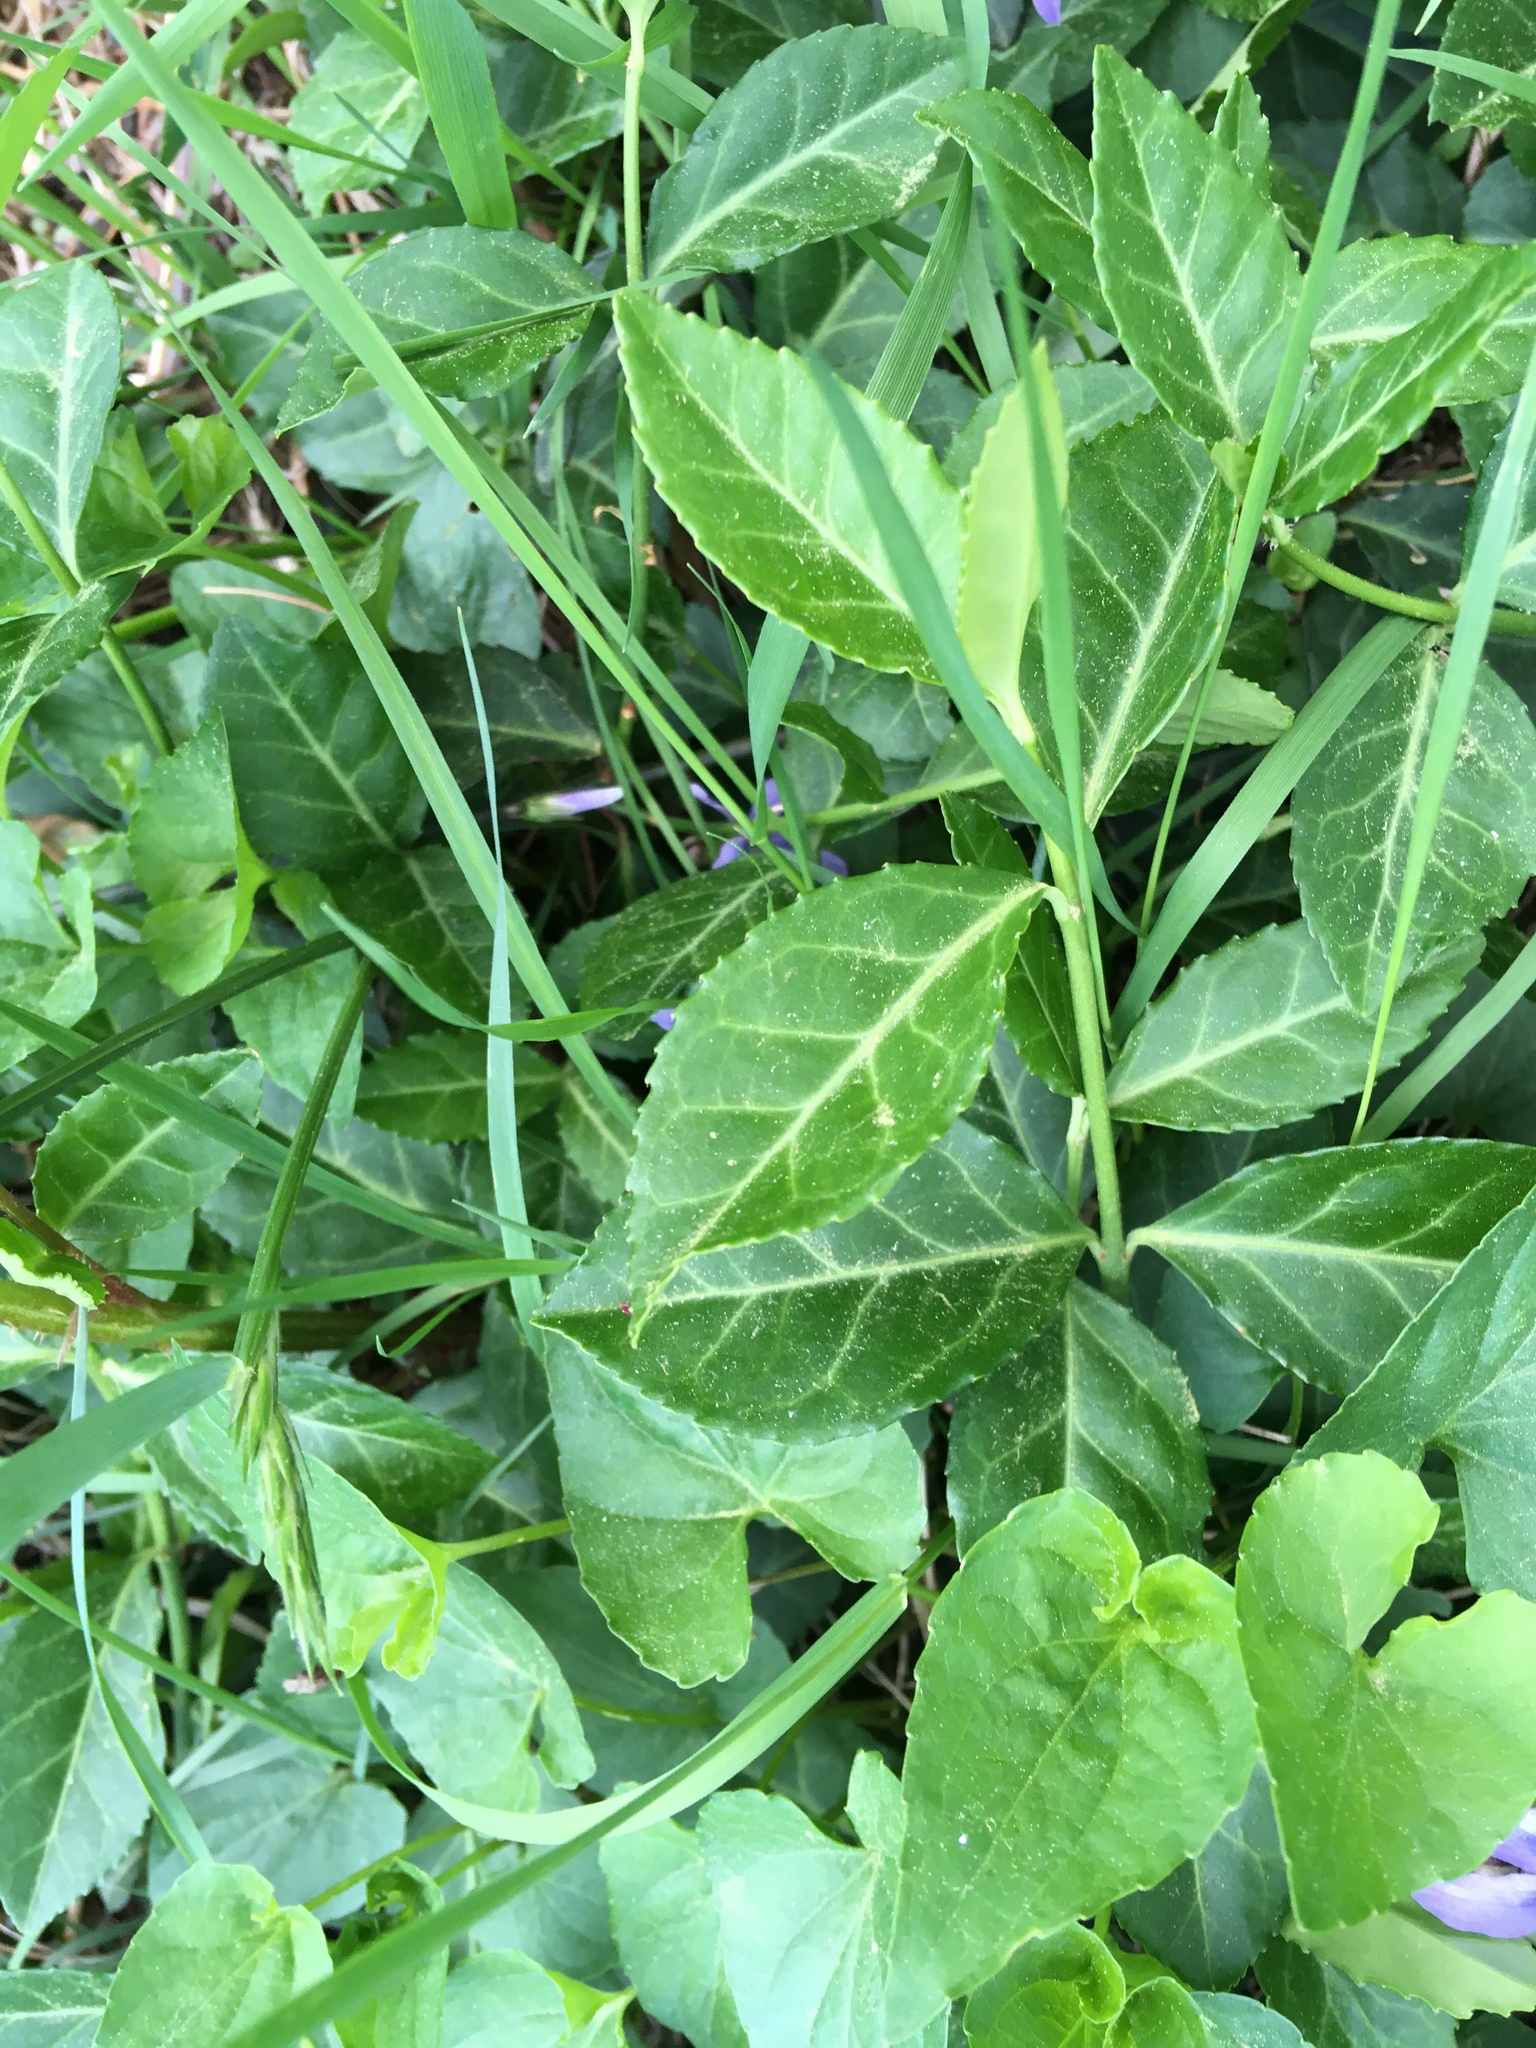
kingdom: Plantae
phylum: Tracheophyta
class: Magnoliopsida
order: Celastrales
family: Celastraceae
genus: Euonymus
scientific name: Euonymus fortunei
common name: Climbing euonymus
